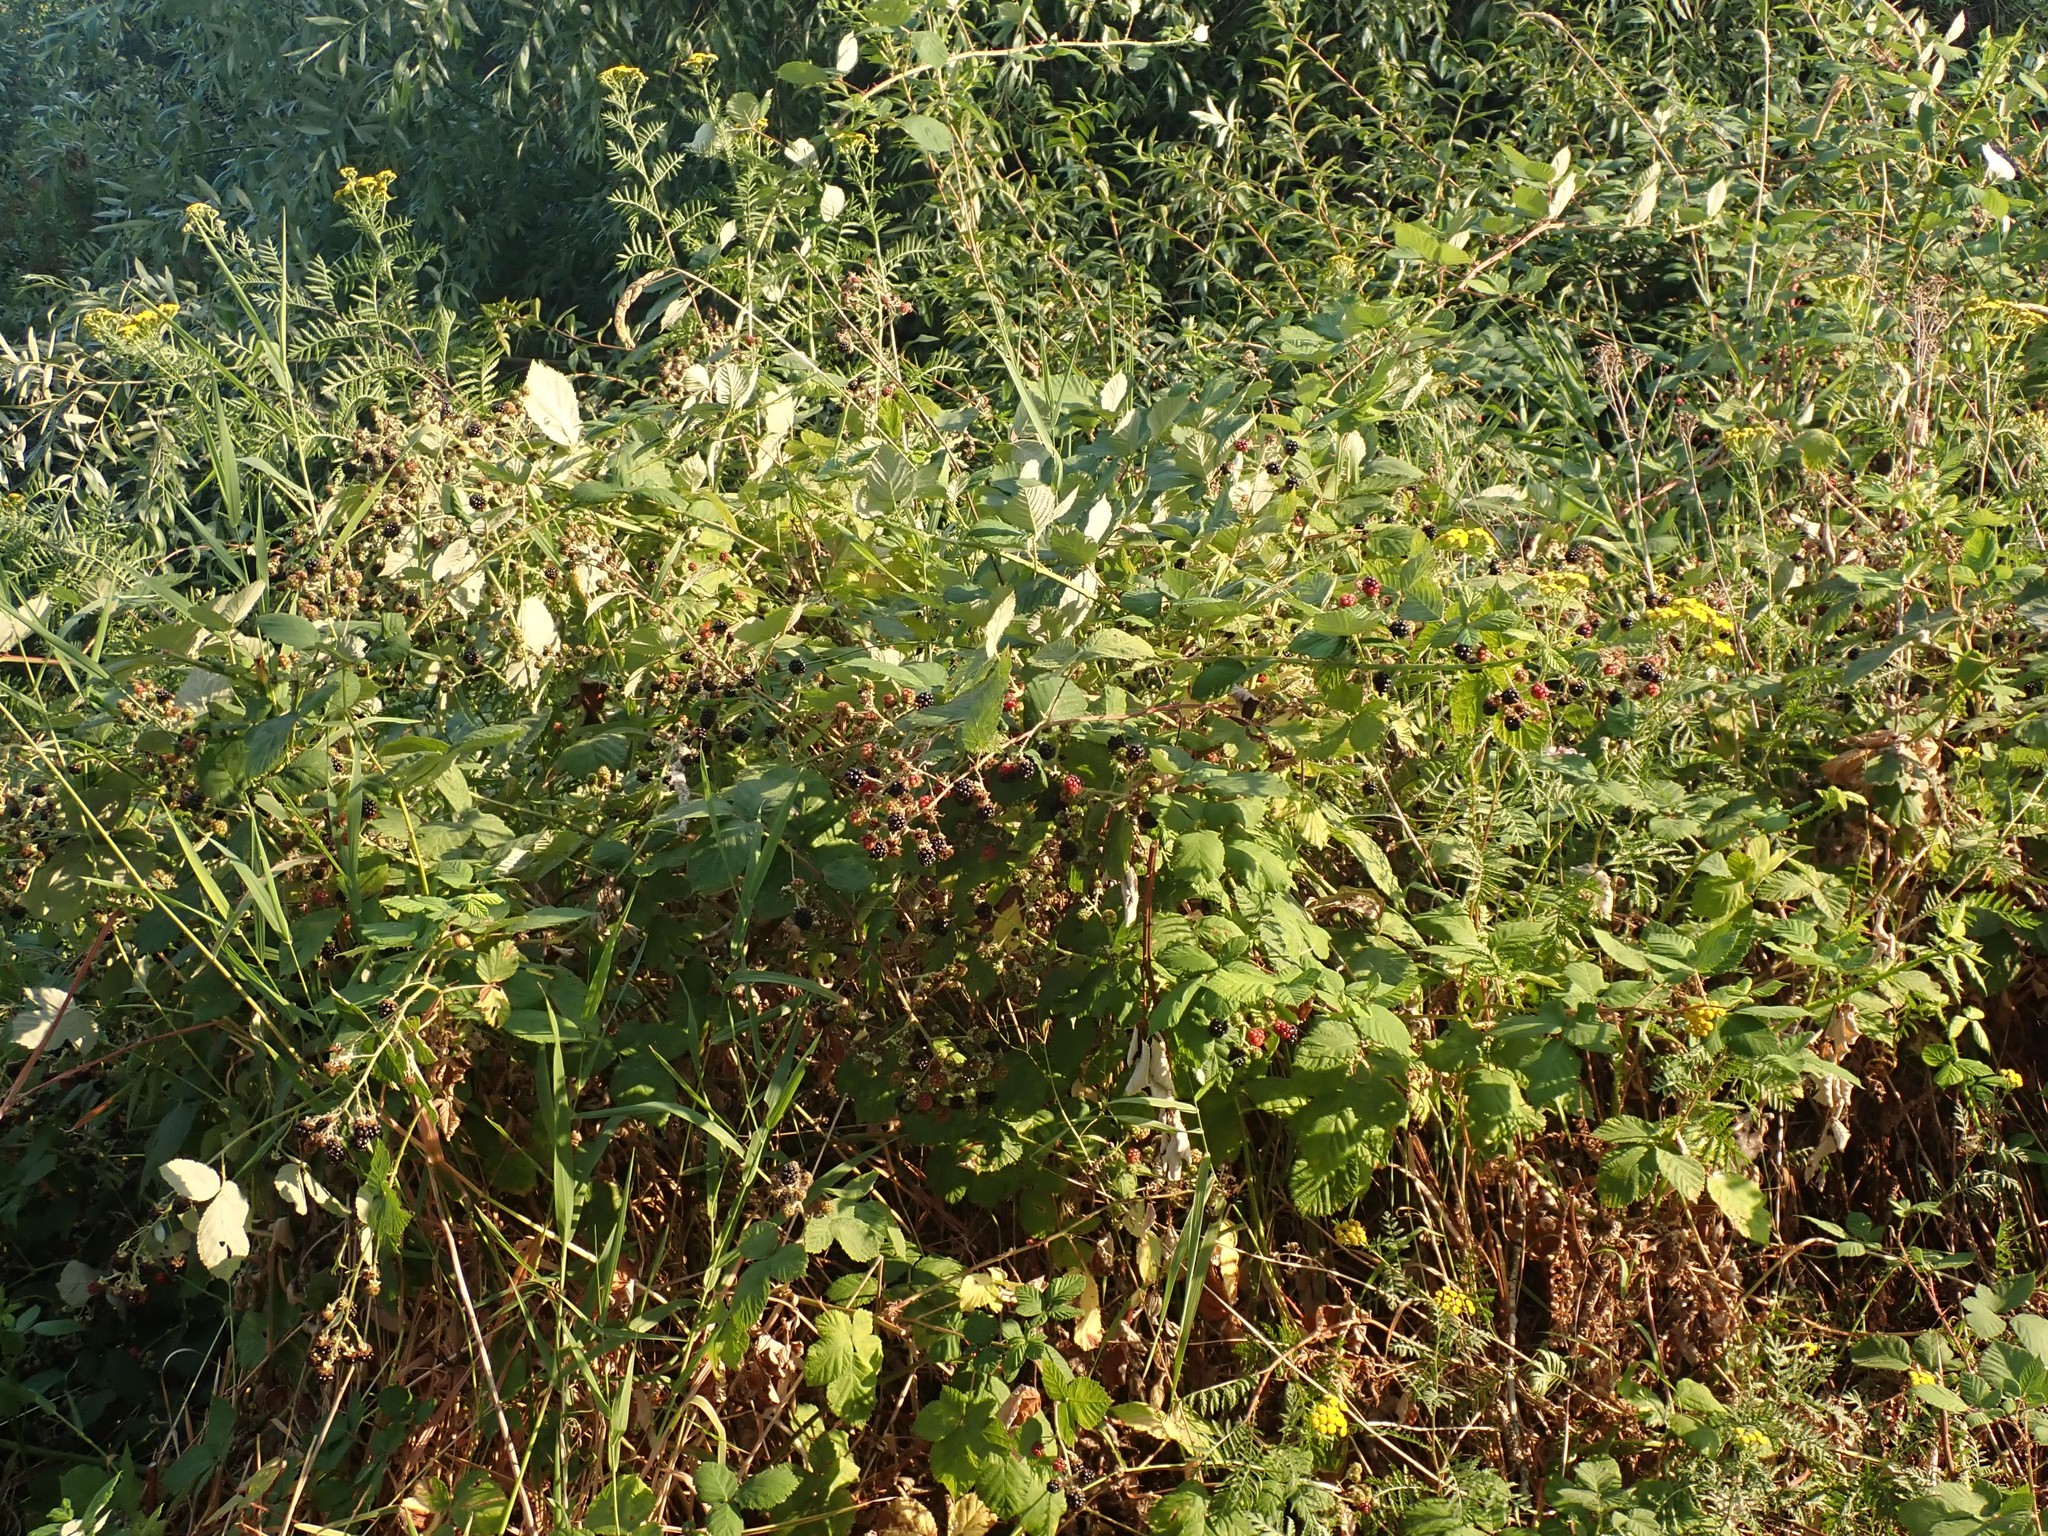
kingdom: Plantae
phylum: Tracheophyta
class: Magnoliopsida
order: Rosales
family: Rosaceae
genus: Rubus
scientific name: Rubus bifrons
